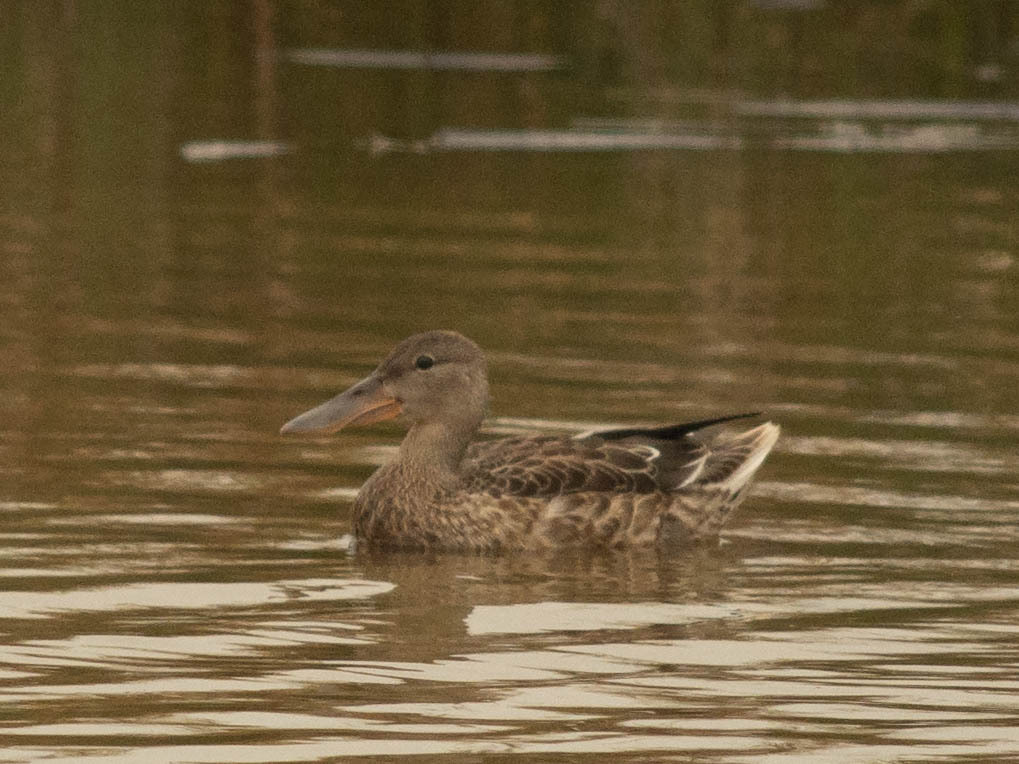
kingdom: Animalia
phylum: Chordata
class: Aves
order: Anseriformes
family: Anatidae
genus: Spatula
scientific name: Spatula clypeata
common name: Northern shoveler
